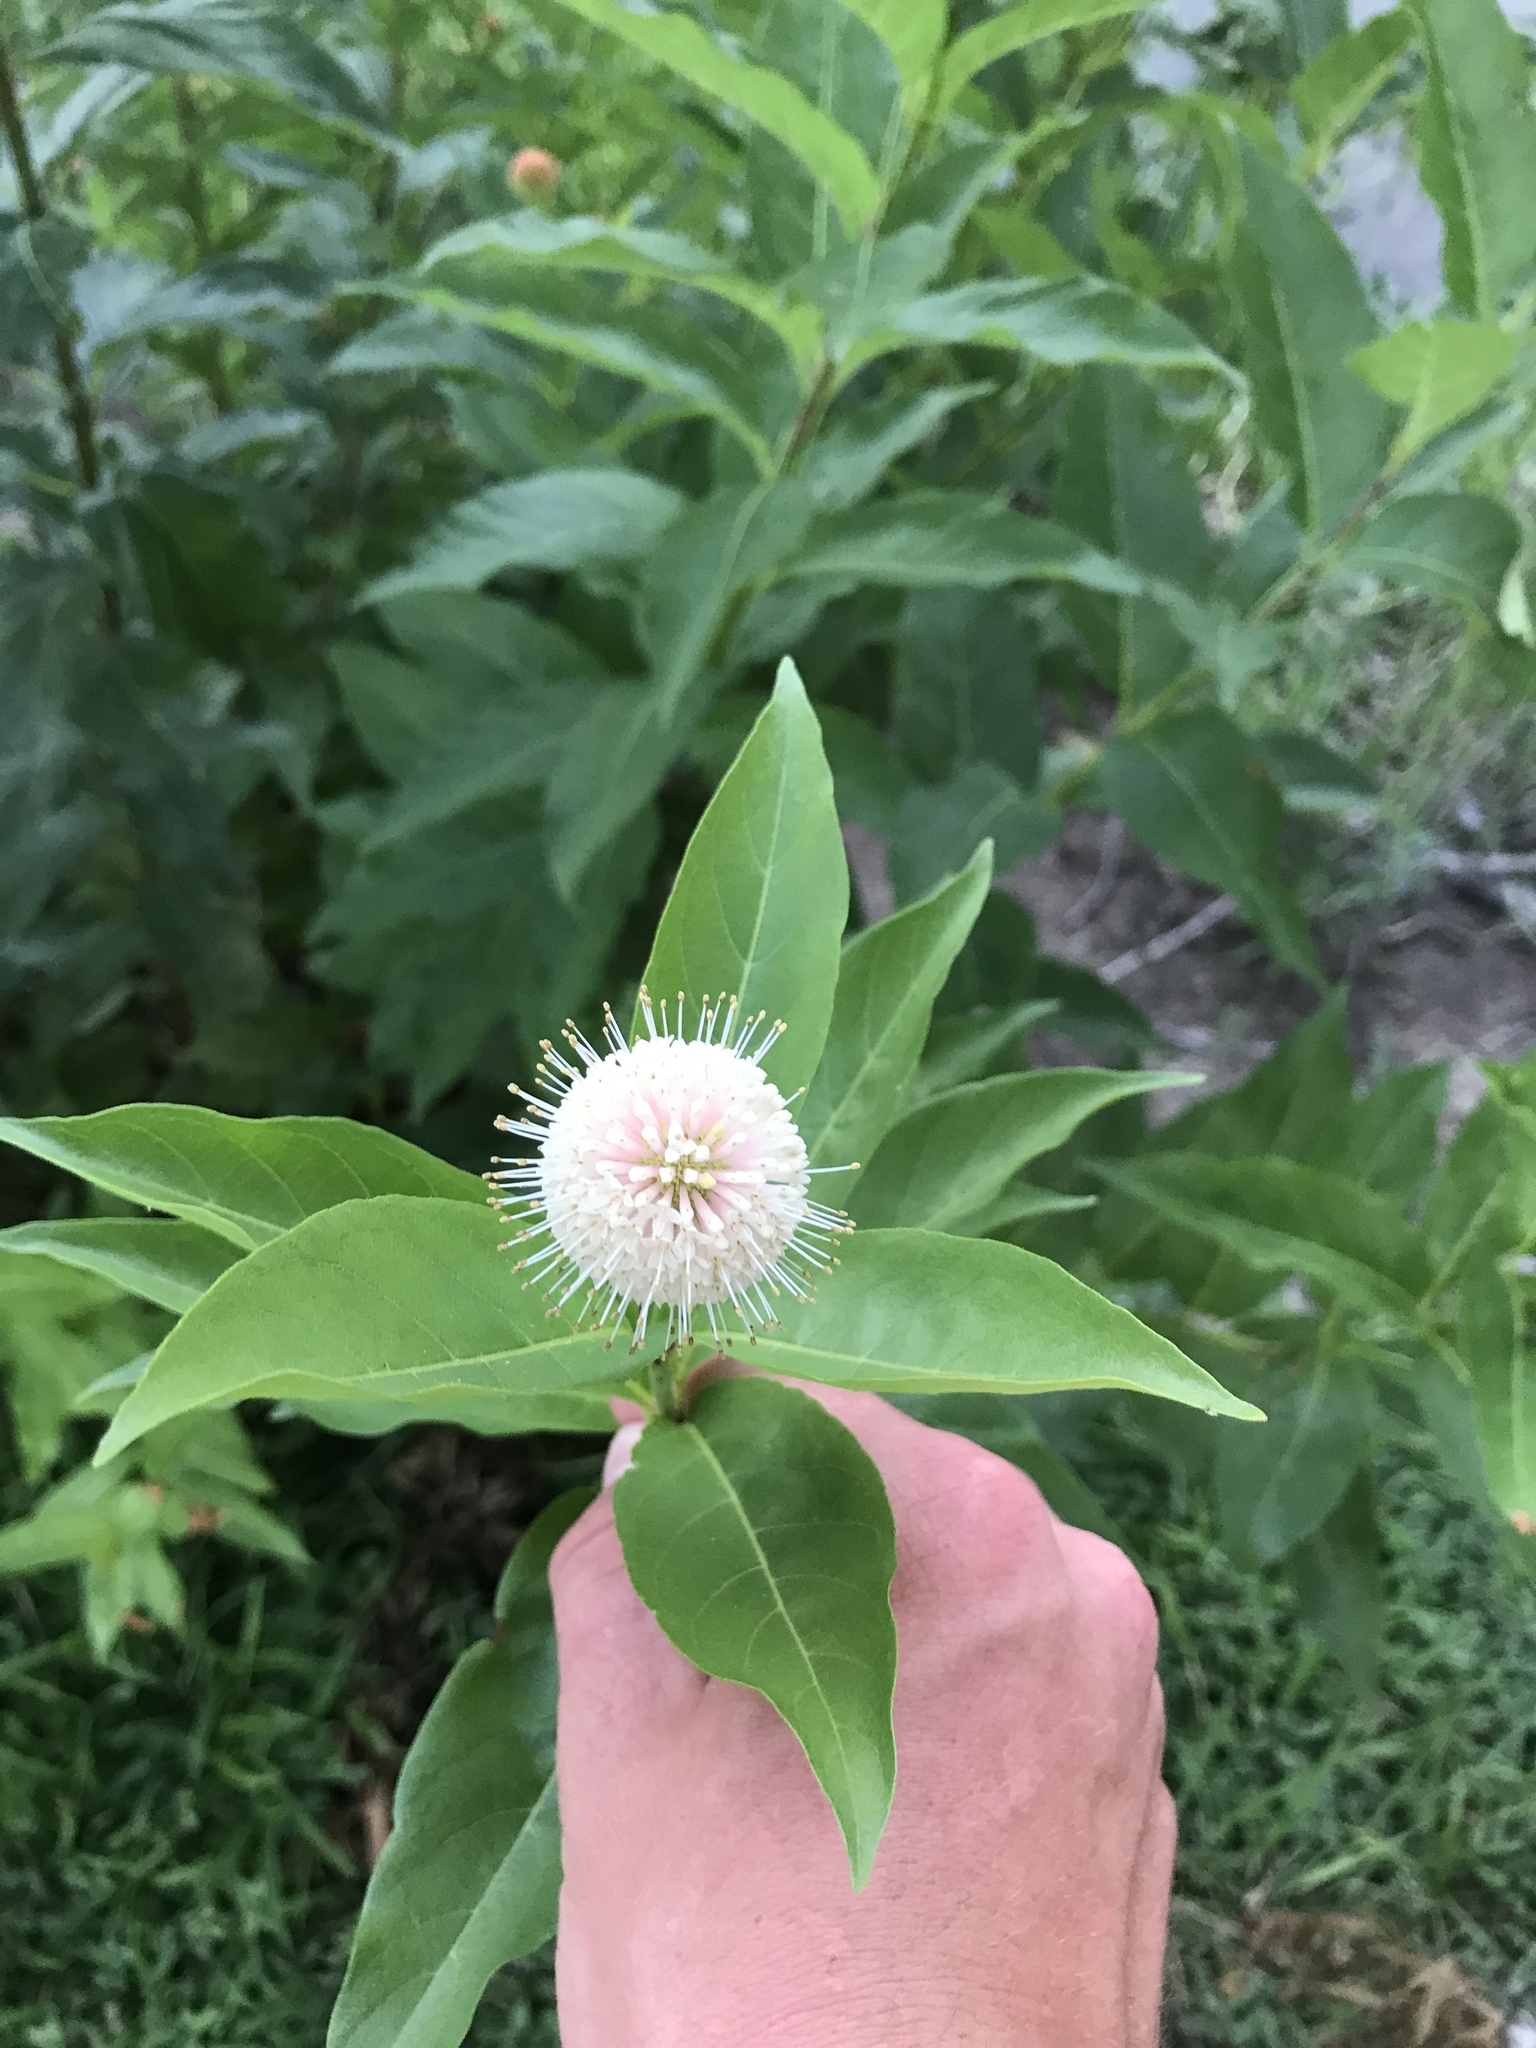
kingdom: Plantae
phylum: Tracheophyta
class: Magnoliopsida
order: Gentianales
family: Rubiaceae
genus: Cephalanthus
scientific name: Cephalanthus occidentalis
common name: Button-willow
